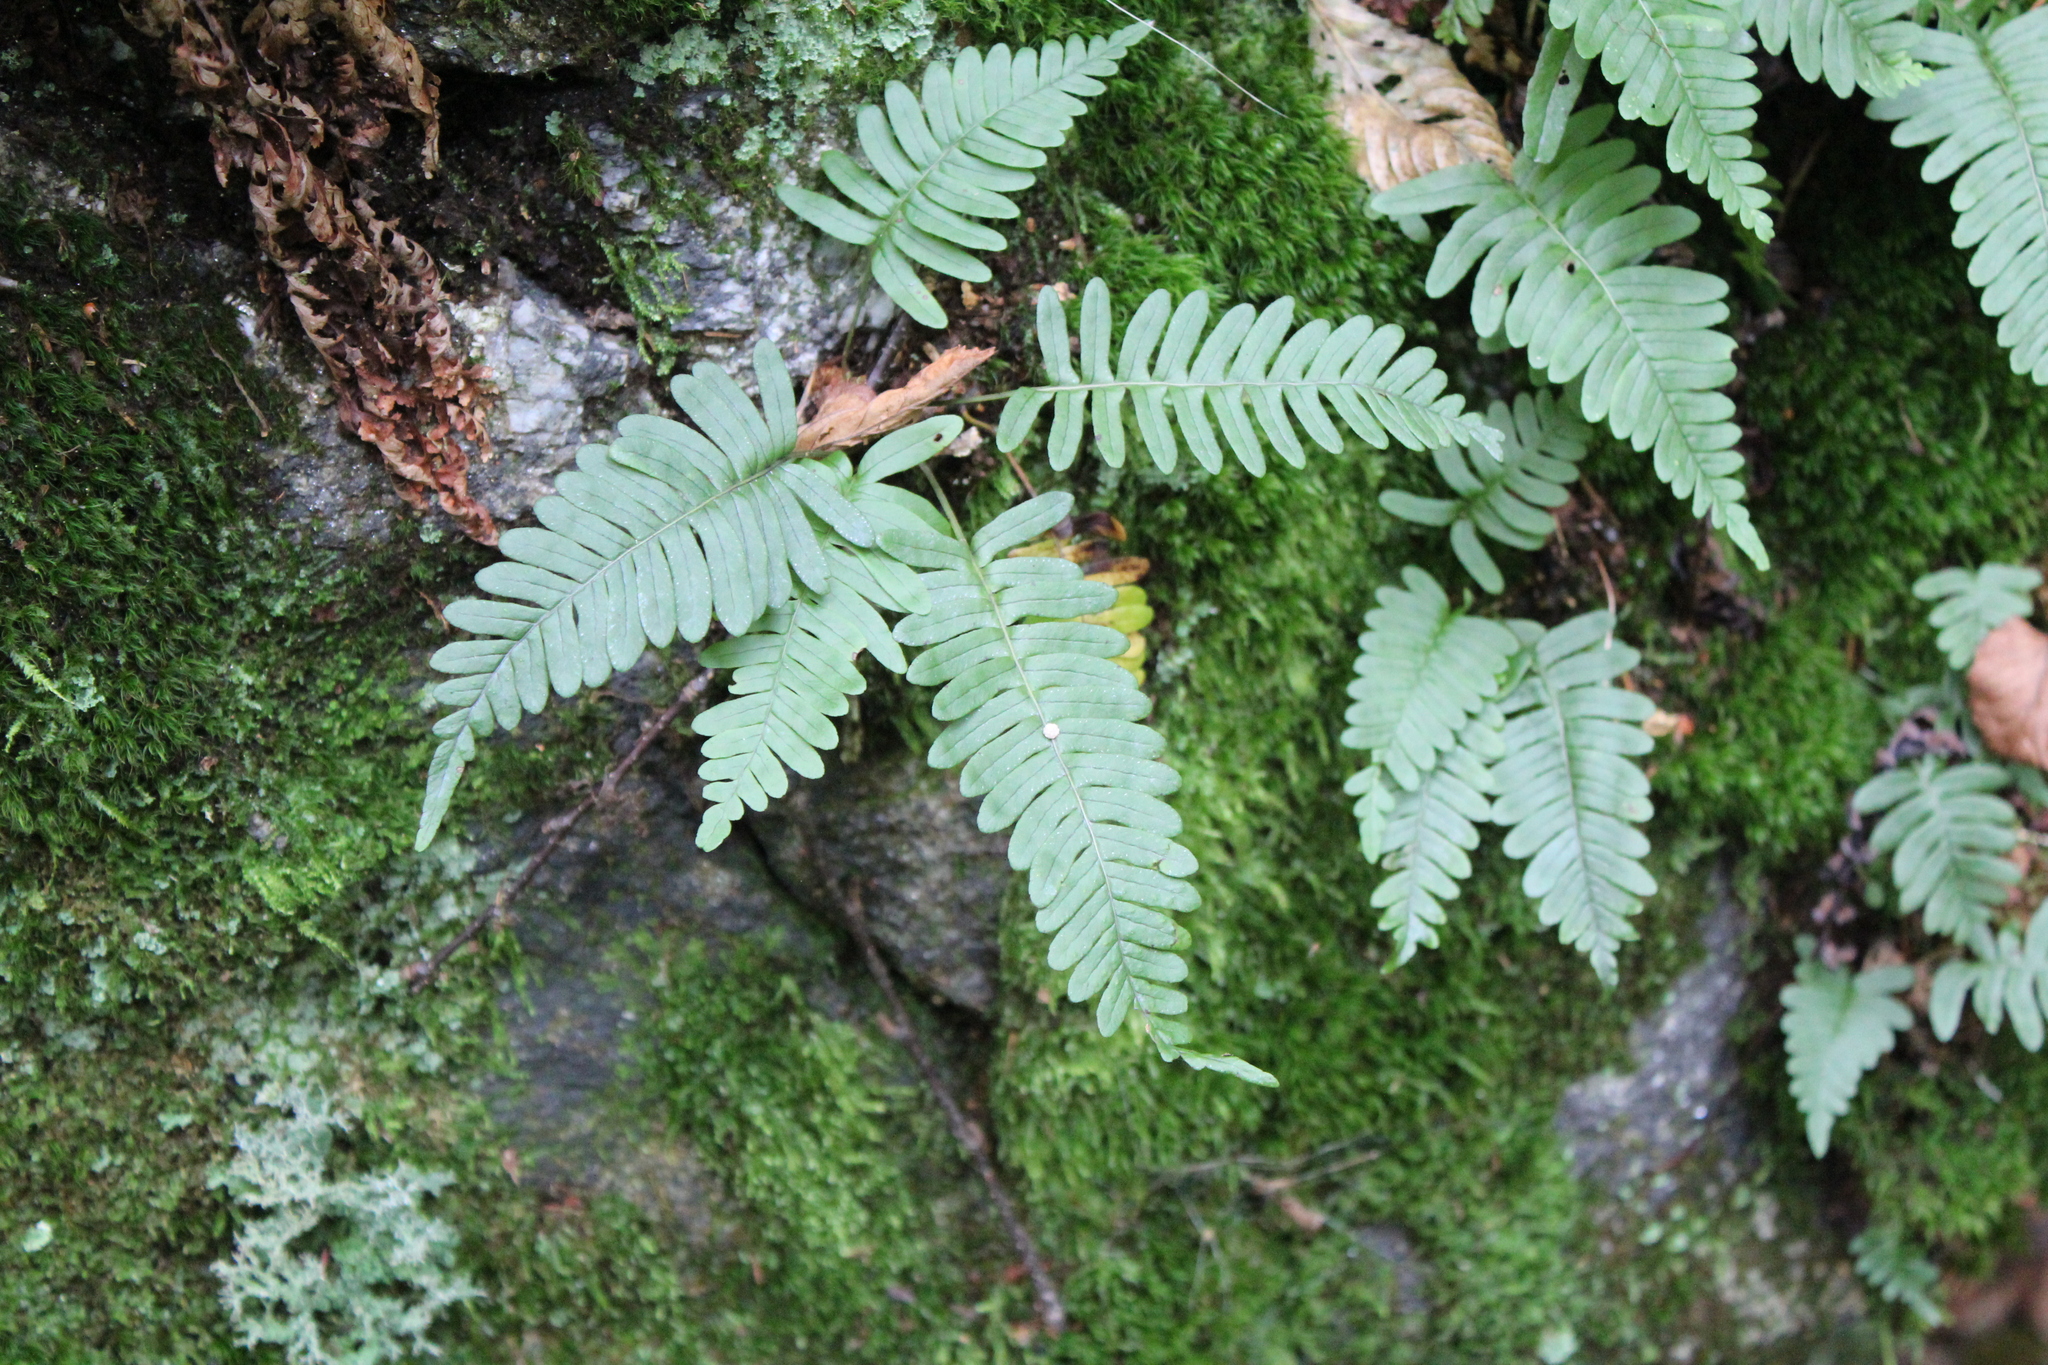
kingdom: Plantae
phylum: Tracheophyta
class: Polypodiopsida
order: Polypodiales
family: Polypodiaceae
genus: Polypodium
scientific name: Polypodium virginianum
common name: American wall fern
